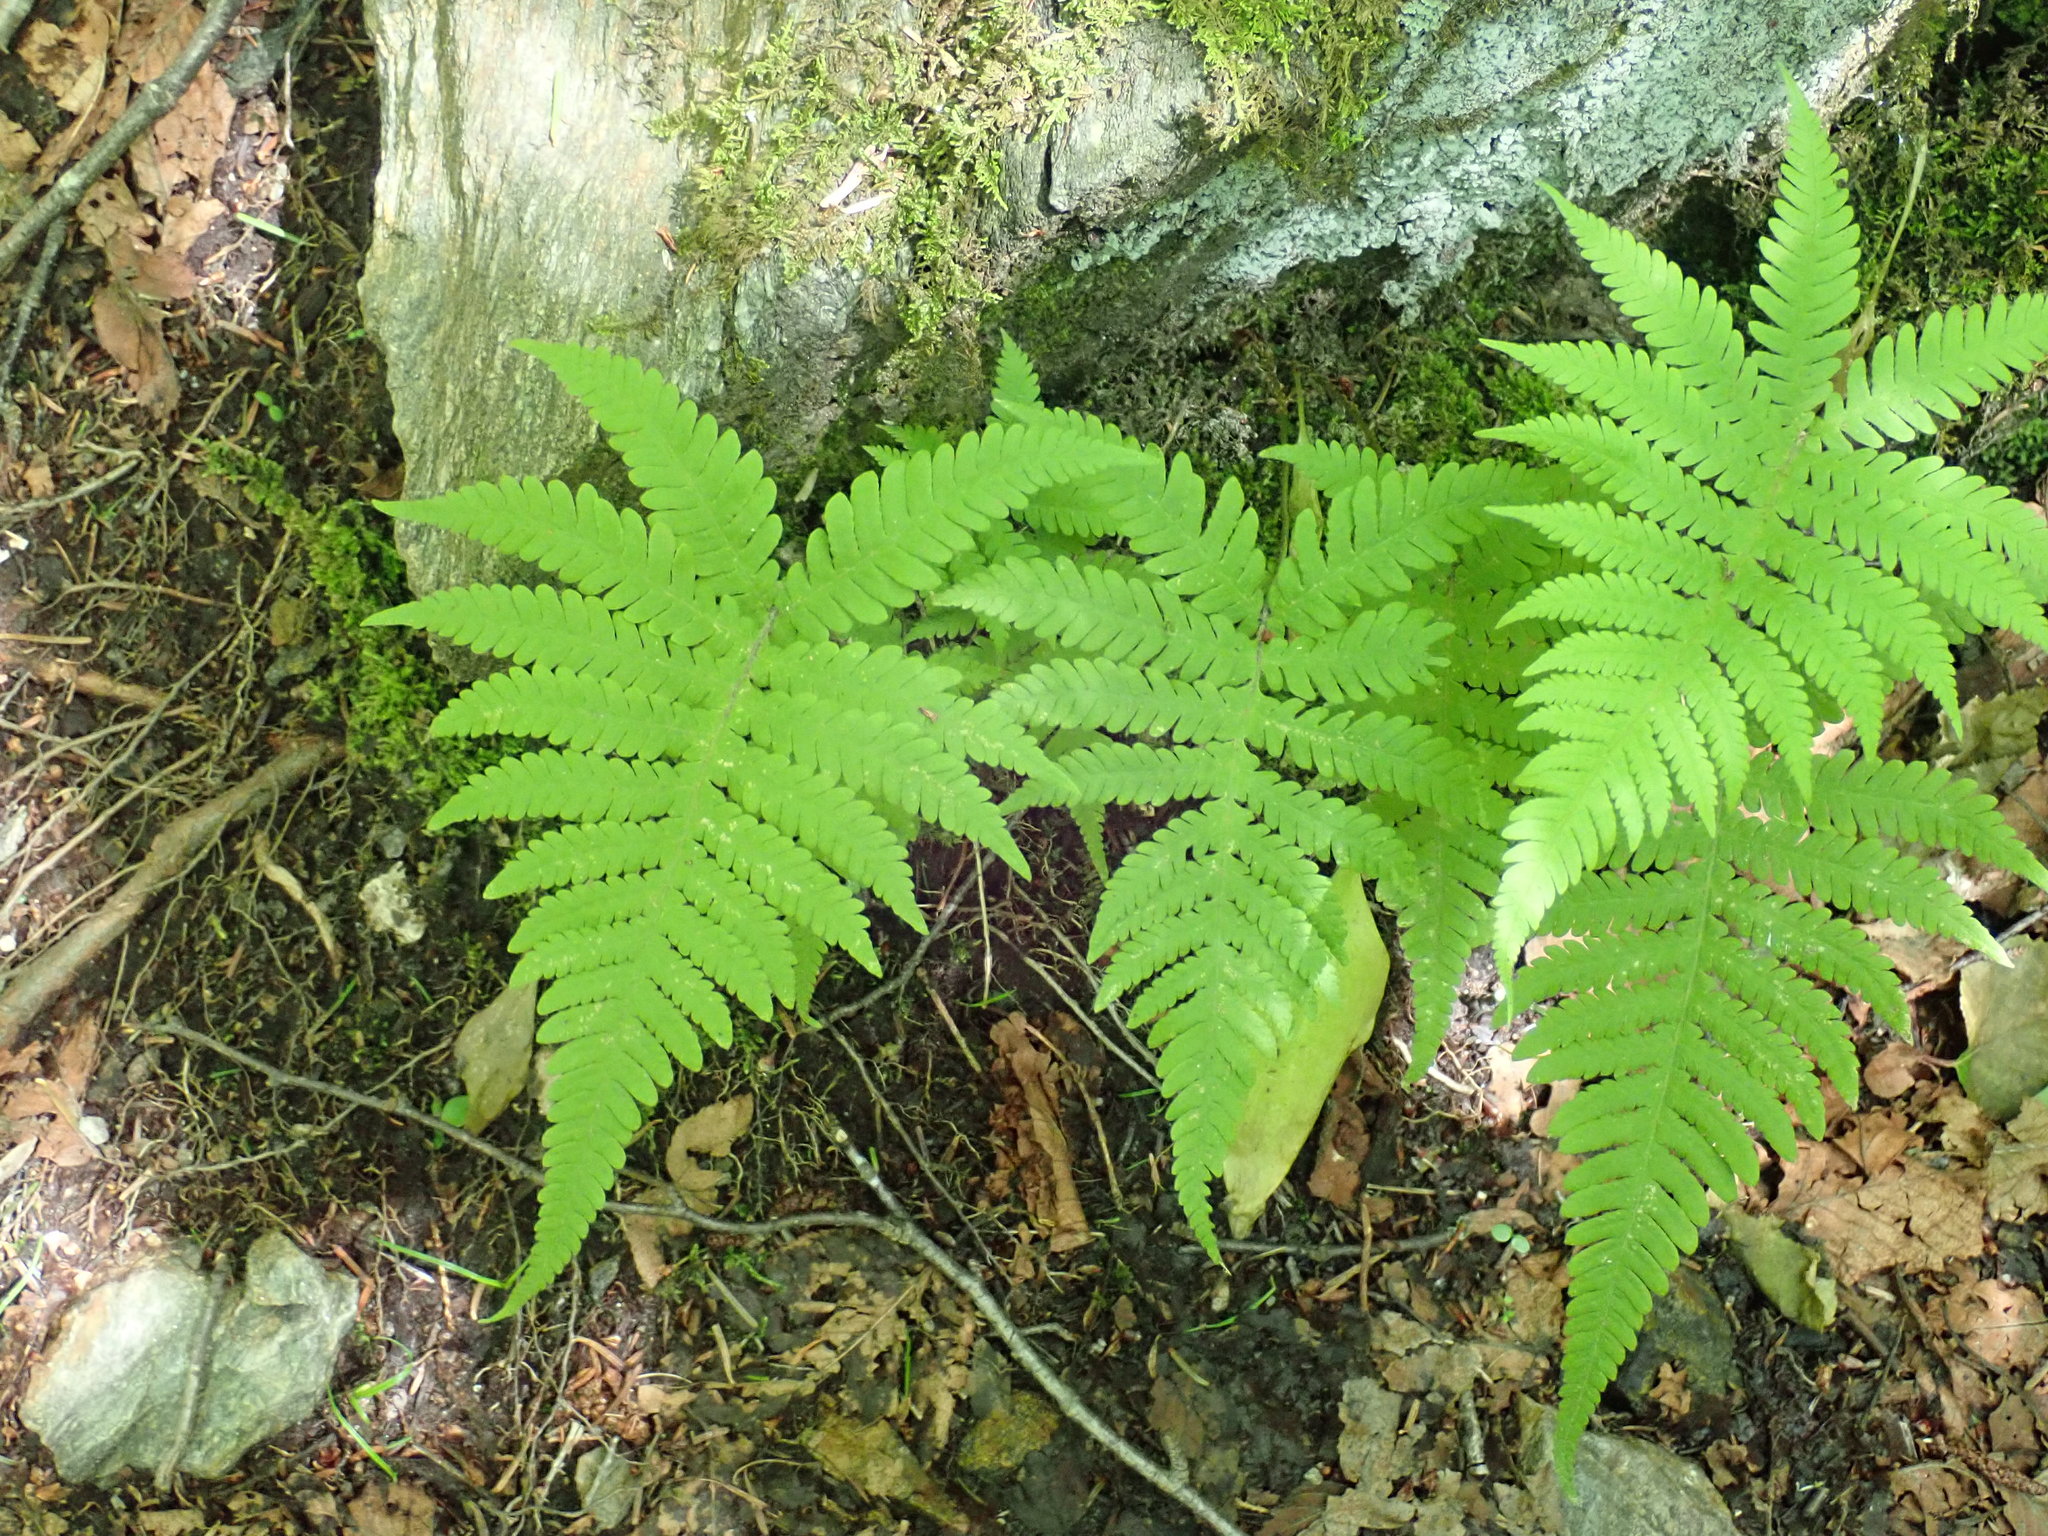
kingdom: Plantae
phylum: Tracheophyta
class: Polypodiopsida
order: Polypodiales
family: Thelypteridaceae
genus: Phegopteris
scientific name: Phegopteris connectilis
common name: Beech fern
